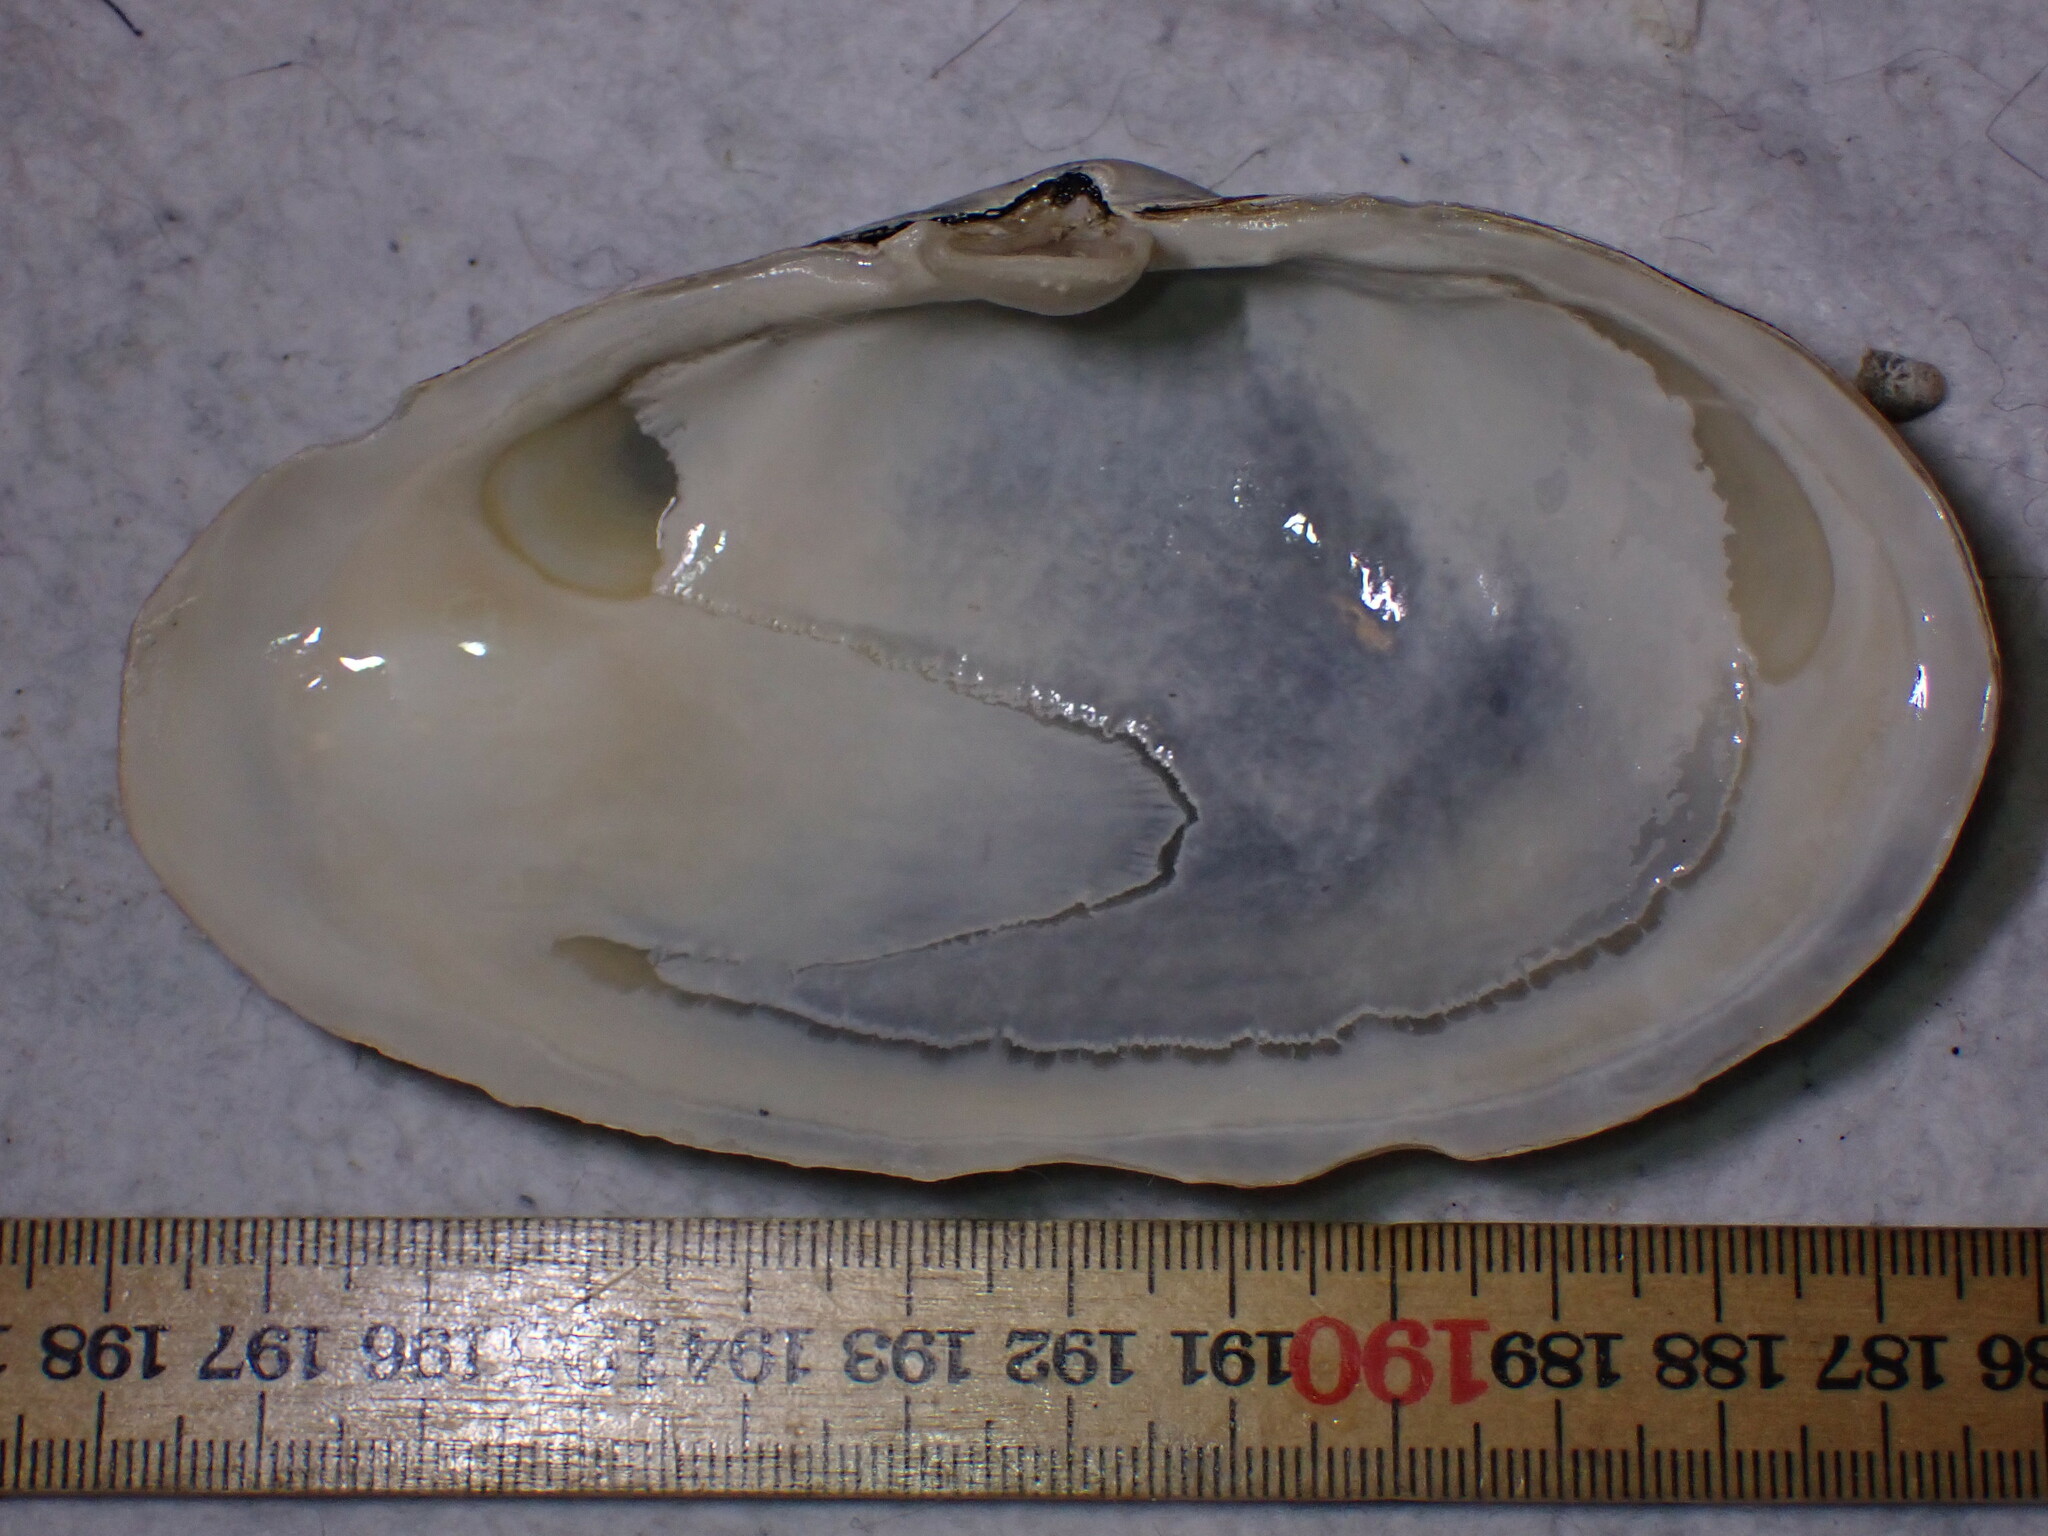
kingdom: Animalia
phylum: Mollusca
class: Bivalvia
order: Myida
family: Myidae
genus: Mya
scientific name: Mya arenaria
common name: Soft-shelled clam
